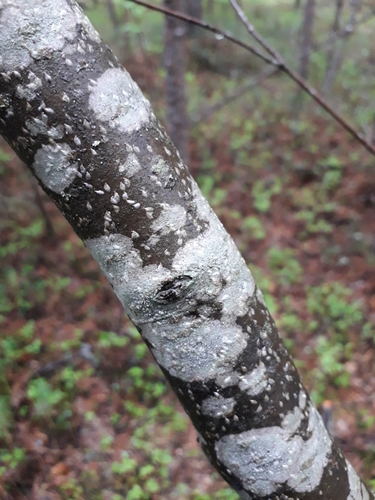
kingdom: Fungi
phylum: Ascomycota
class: Lecanoromycetes
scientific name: Lecanoromycetes
